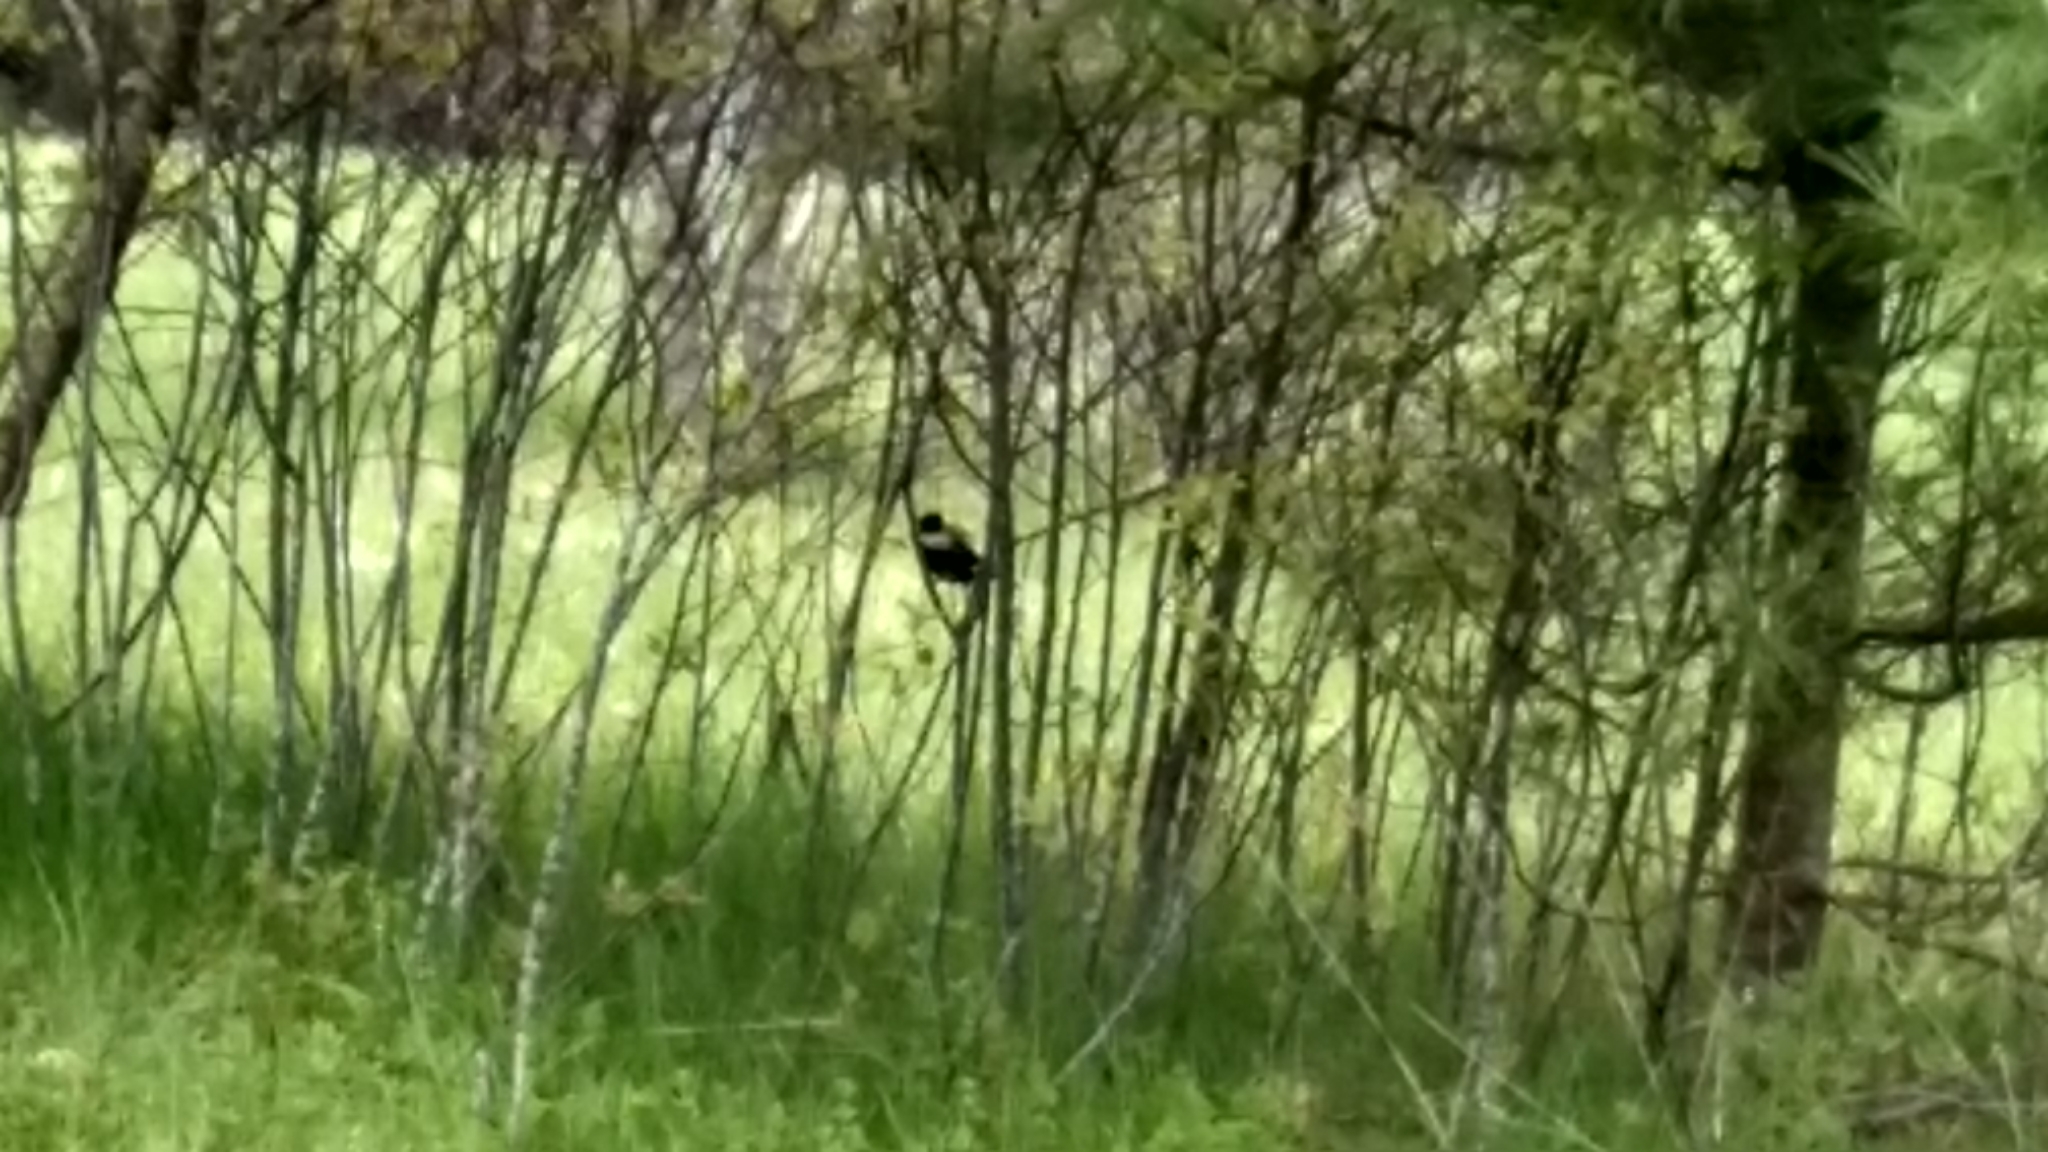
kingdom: Animalia
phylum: Chordata
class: Aves
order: Passeriformes
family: Icteridae
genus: Dolichonyx
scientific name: Dolichonyx oryzivorus
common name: Bobolink
